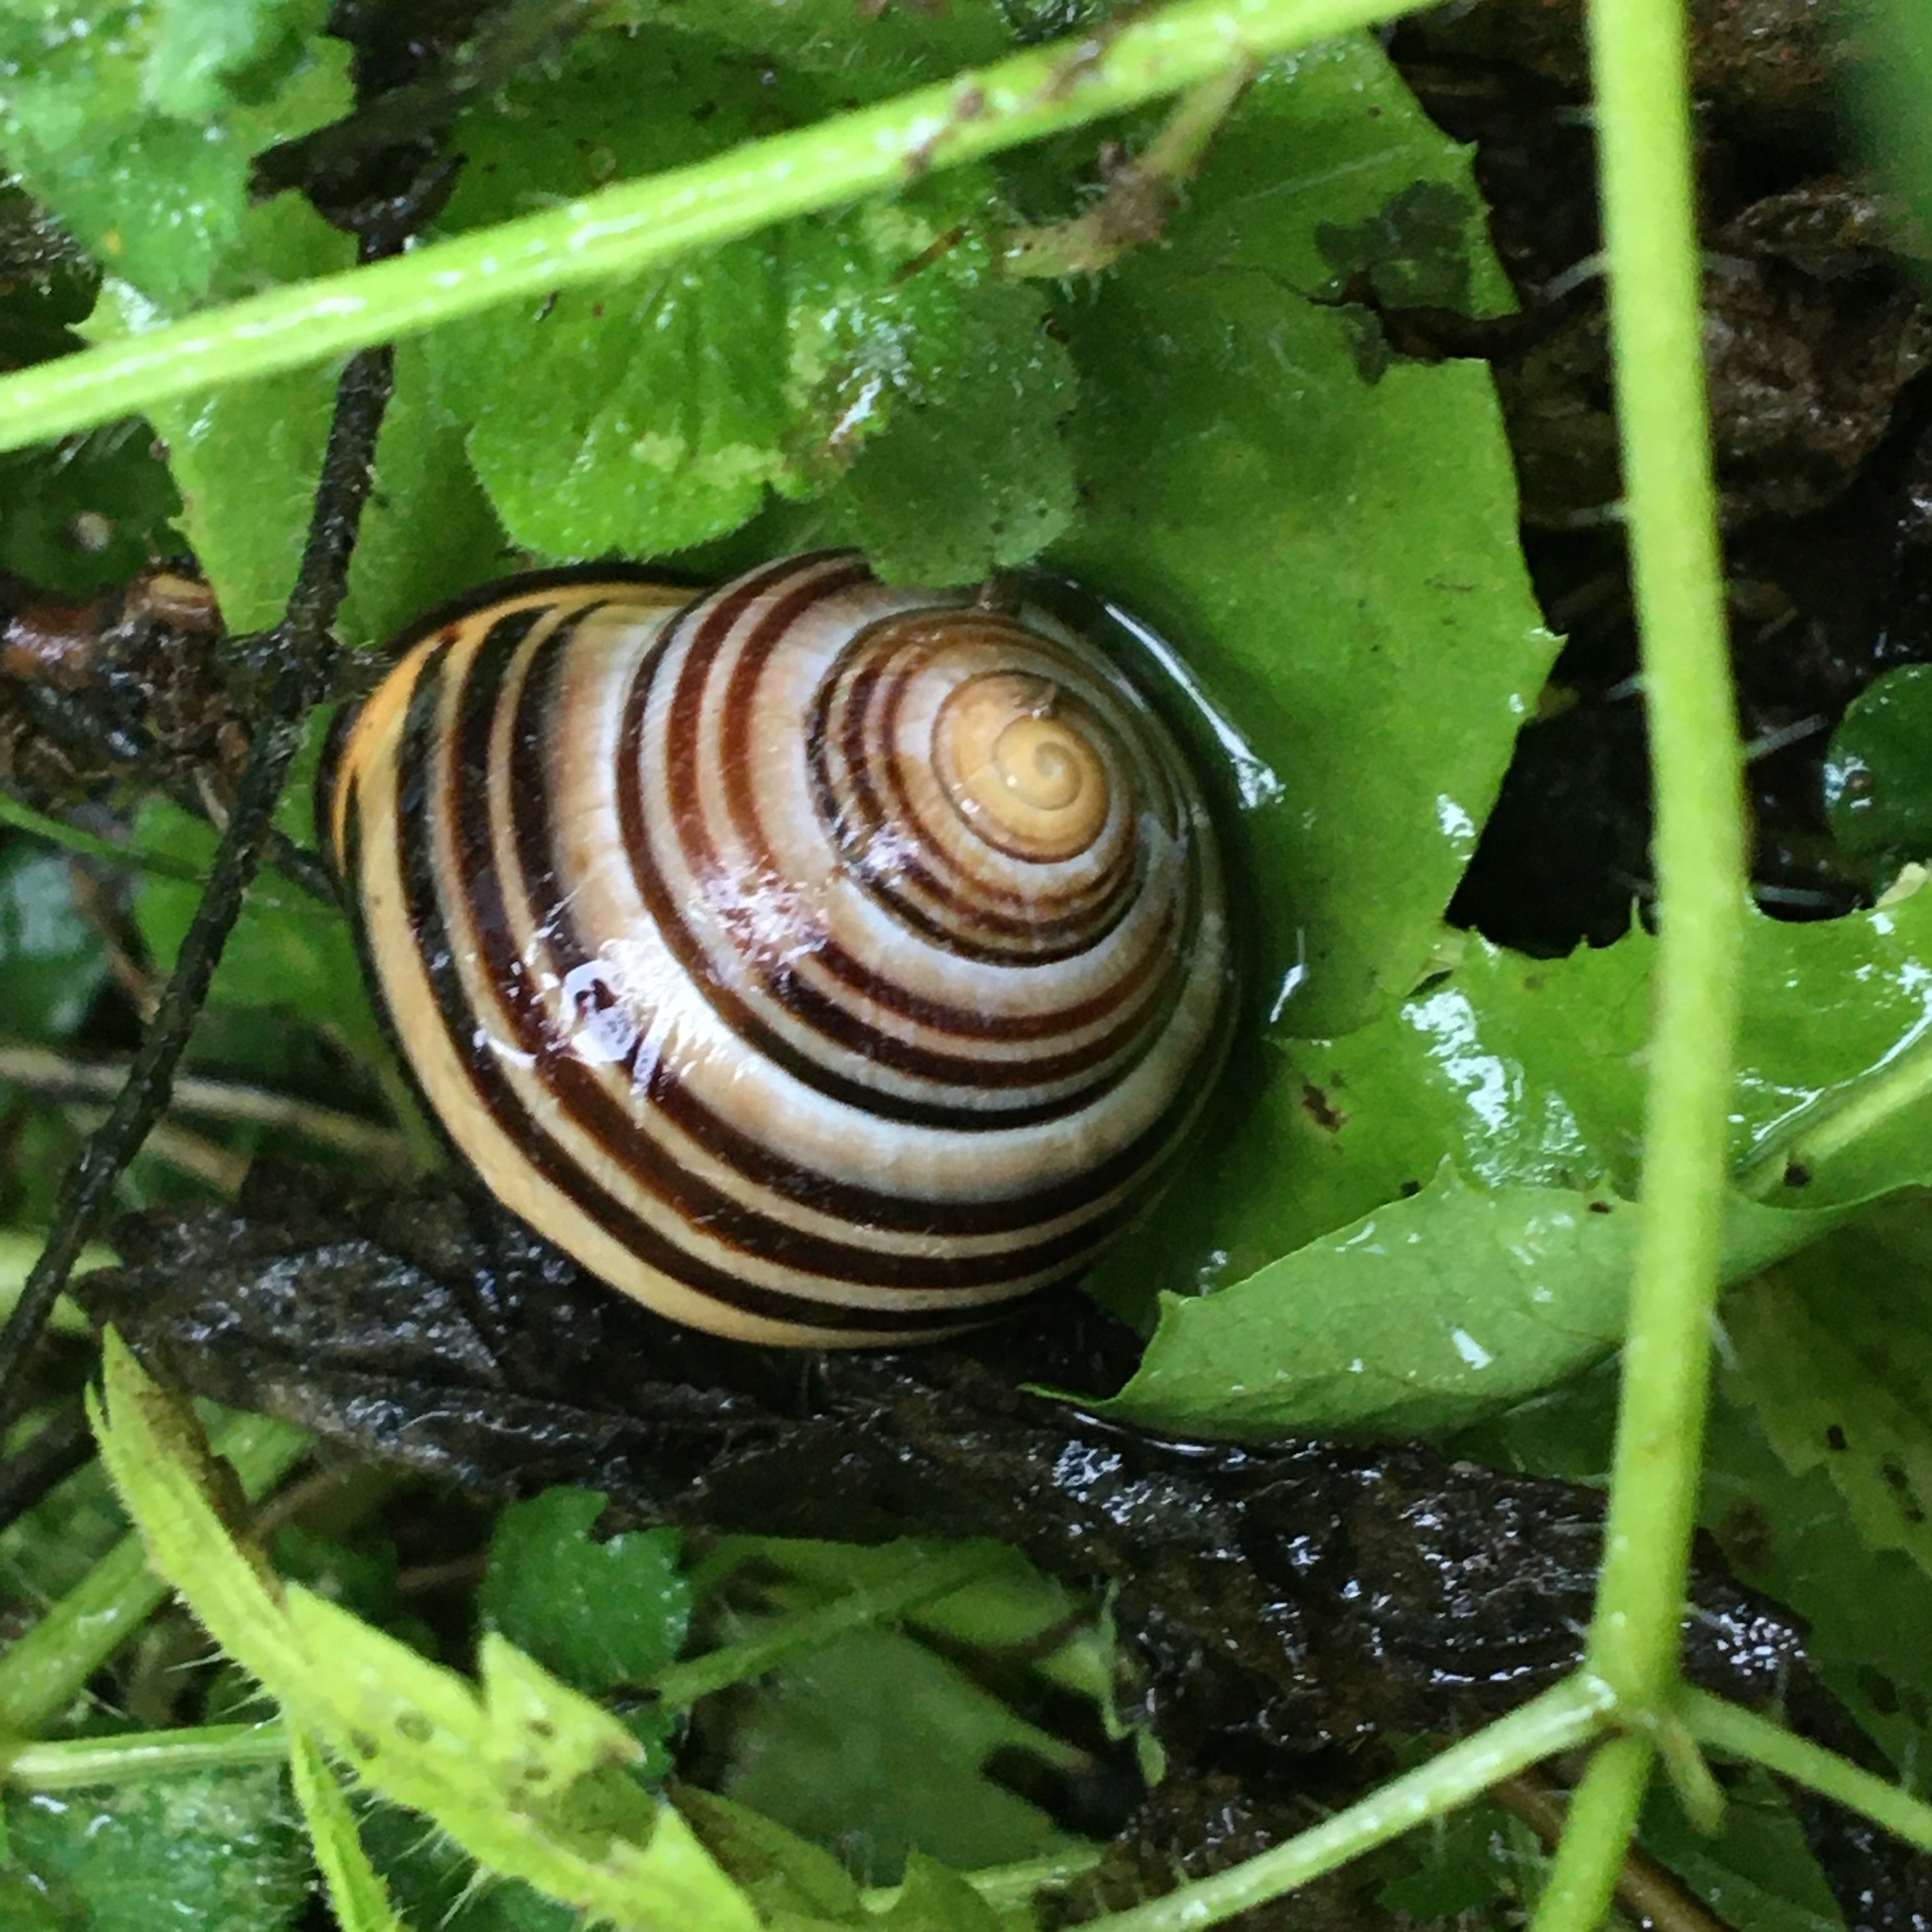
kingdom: Animalia
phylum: Mollusca
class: Gastropoda
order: Stylommatophora
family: Helicidae
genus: Cepaea
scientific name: Cepaea nemoralis
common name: Grovesnail
